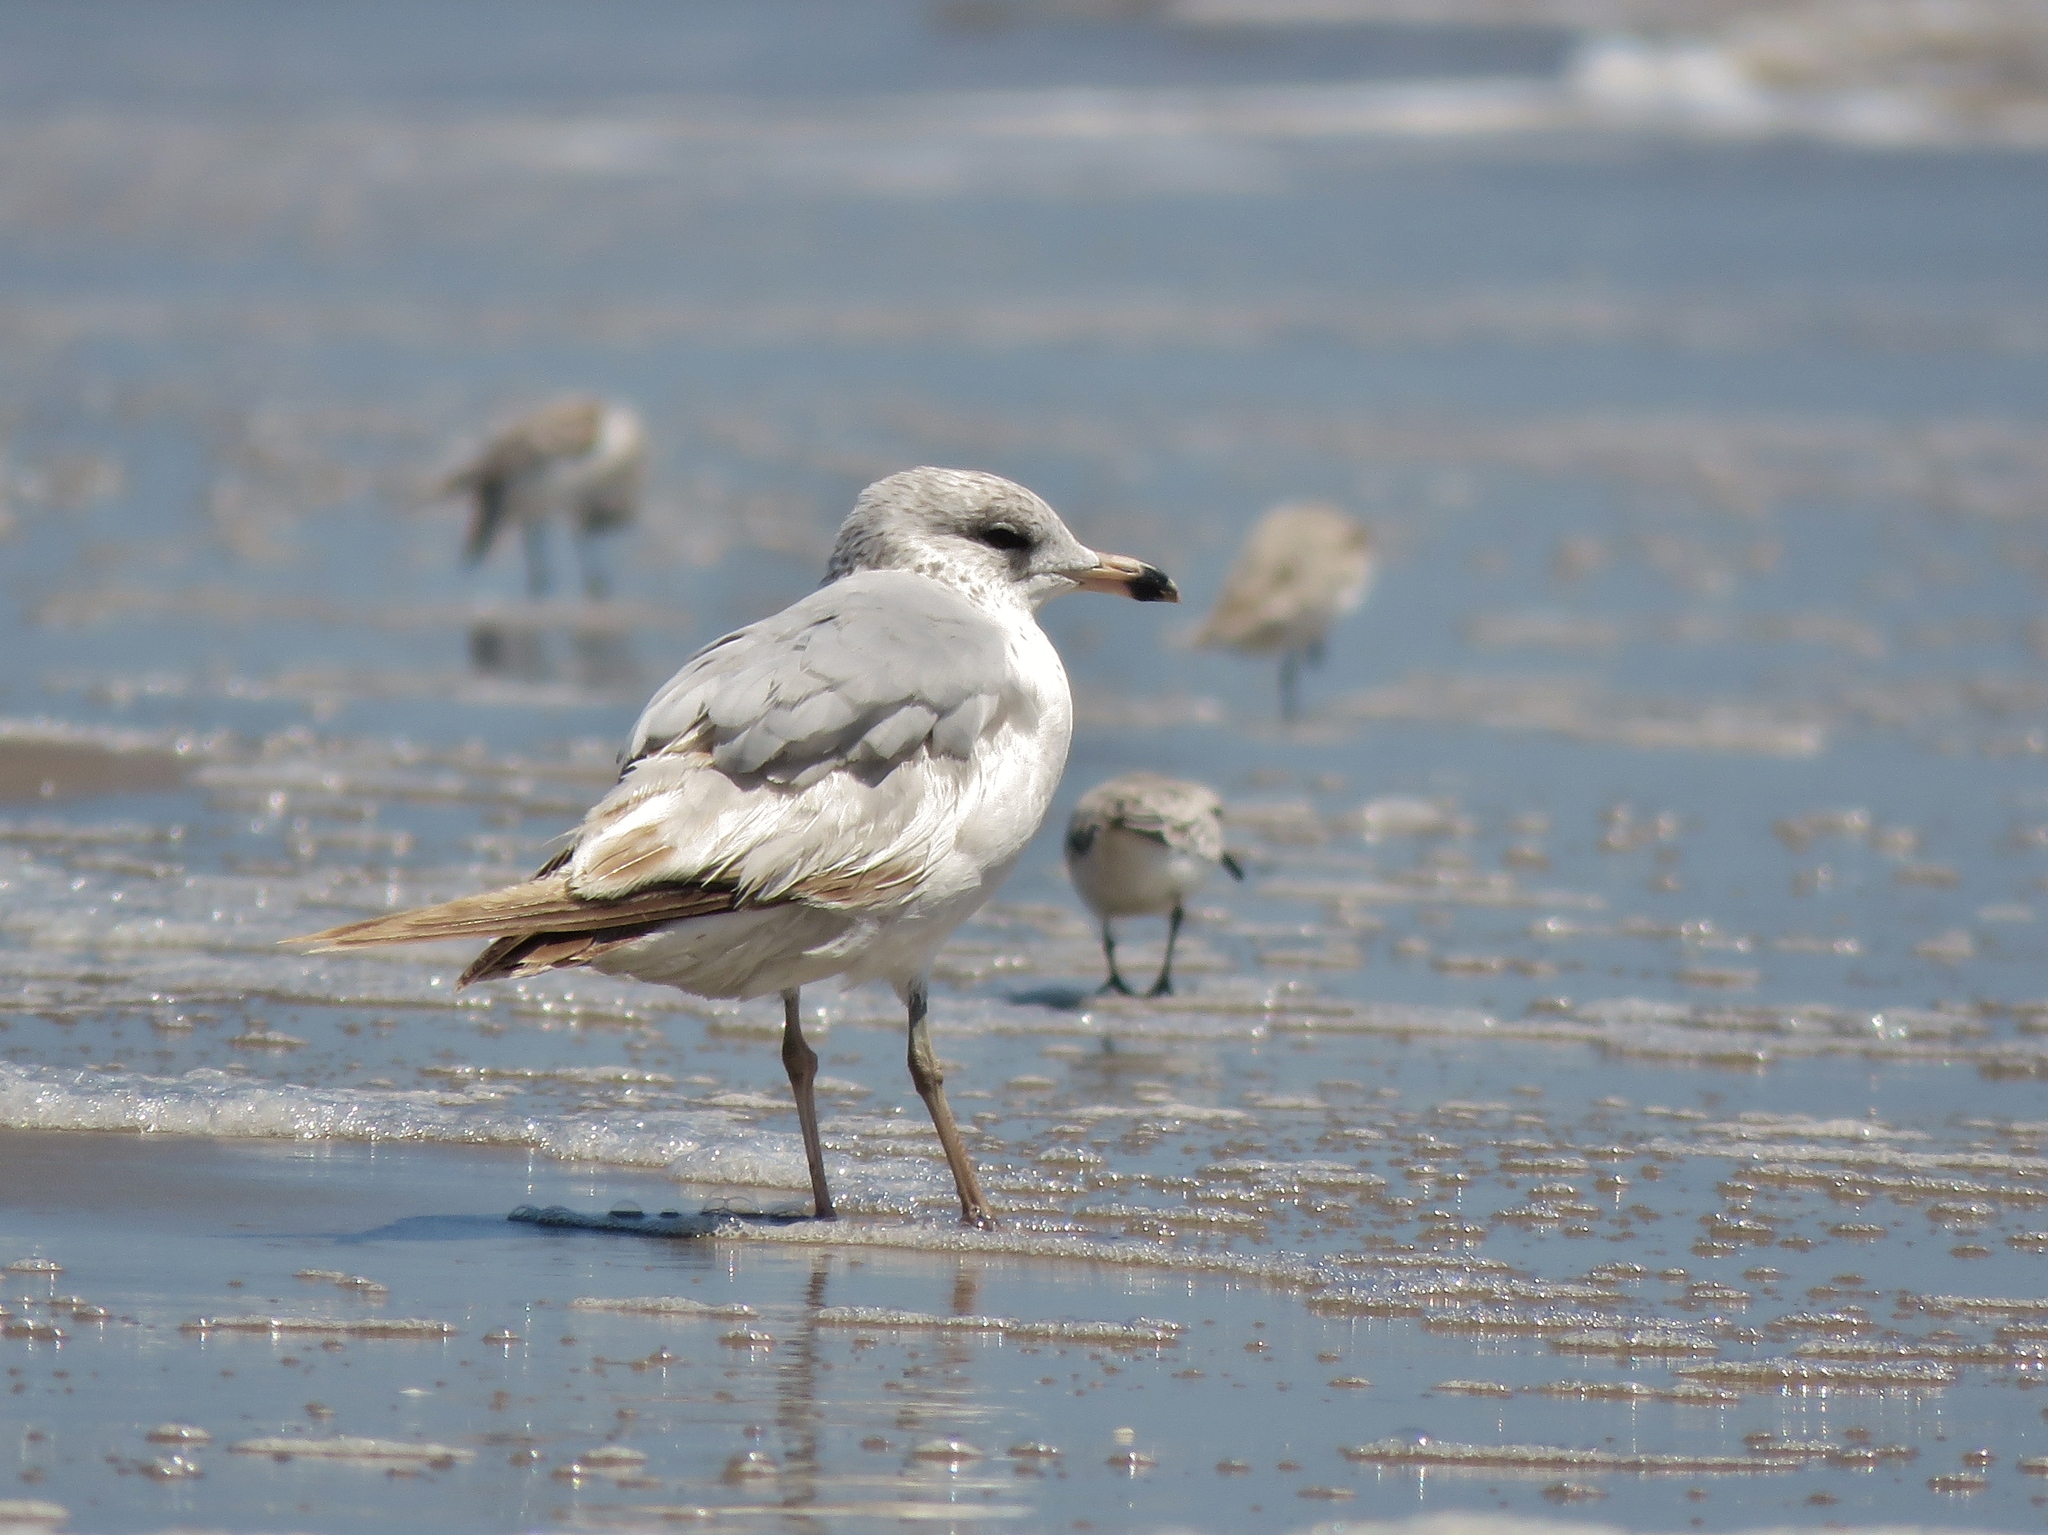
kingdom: Animalia
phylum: Chordata
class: Aves
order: Charadriiformes
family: Laridae
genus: Larus
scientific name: Larus delawarensis
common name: Ring-billed gull
